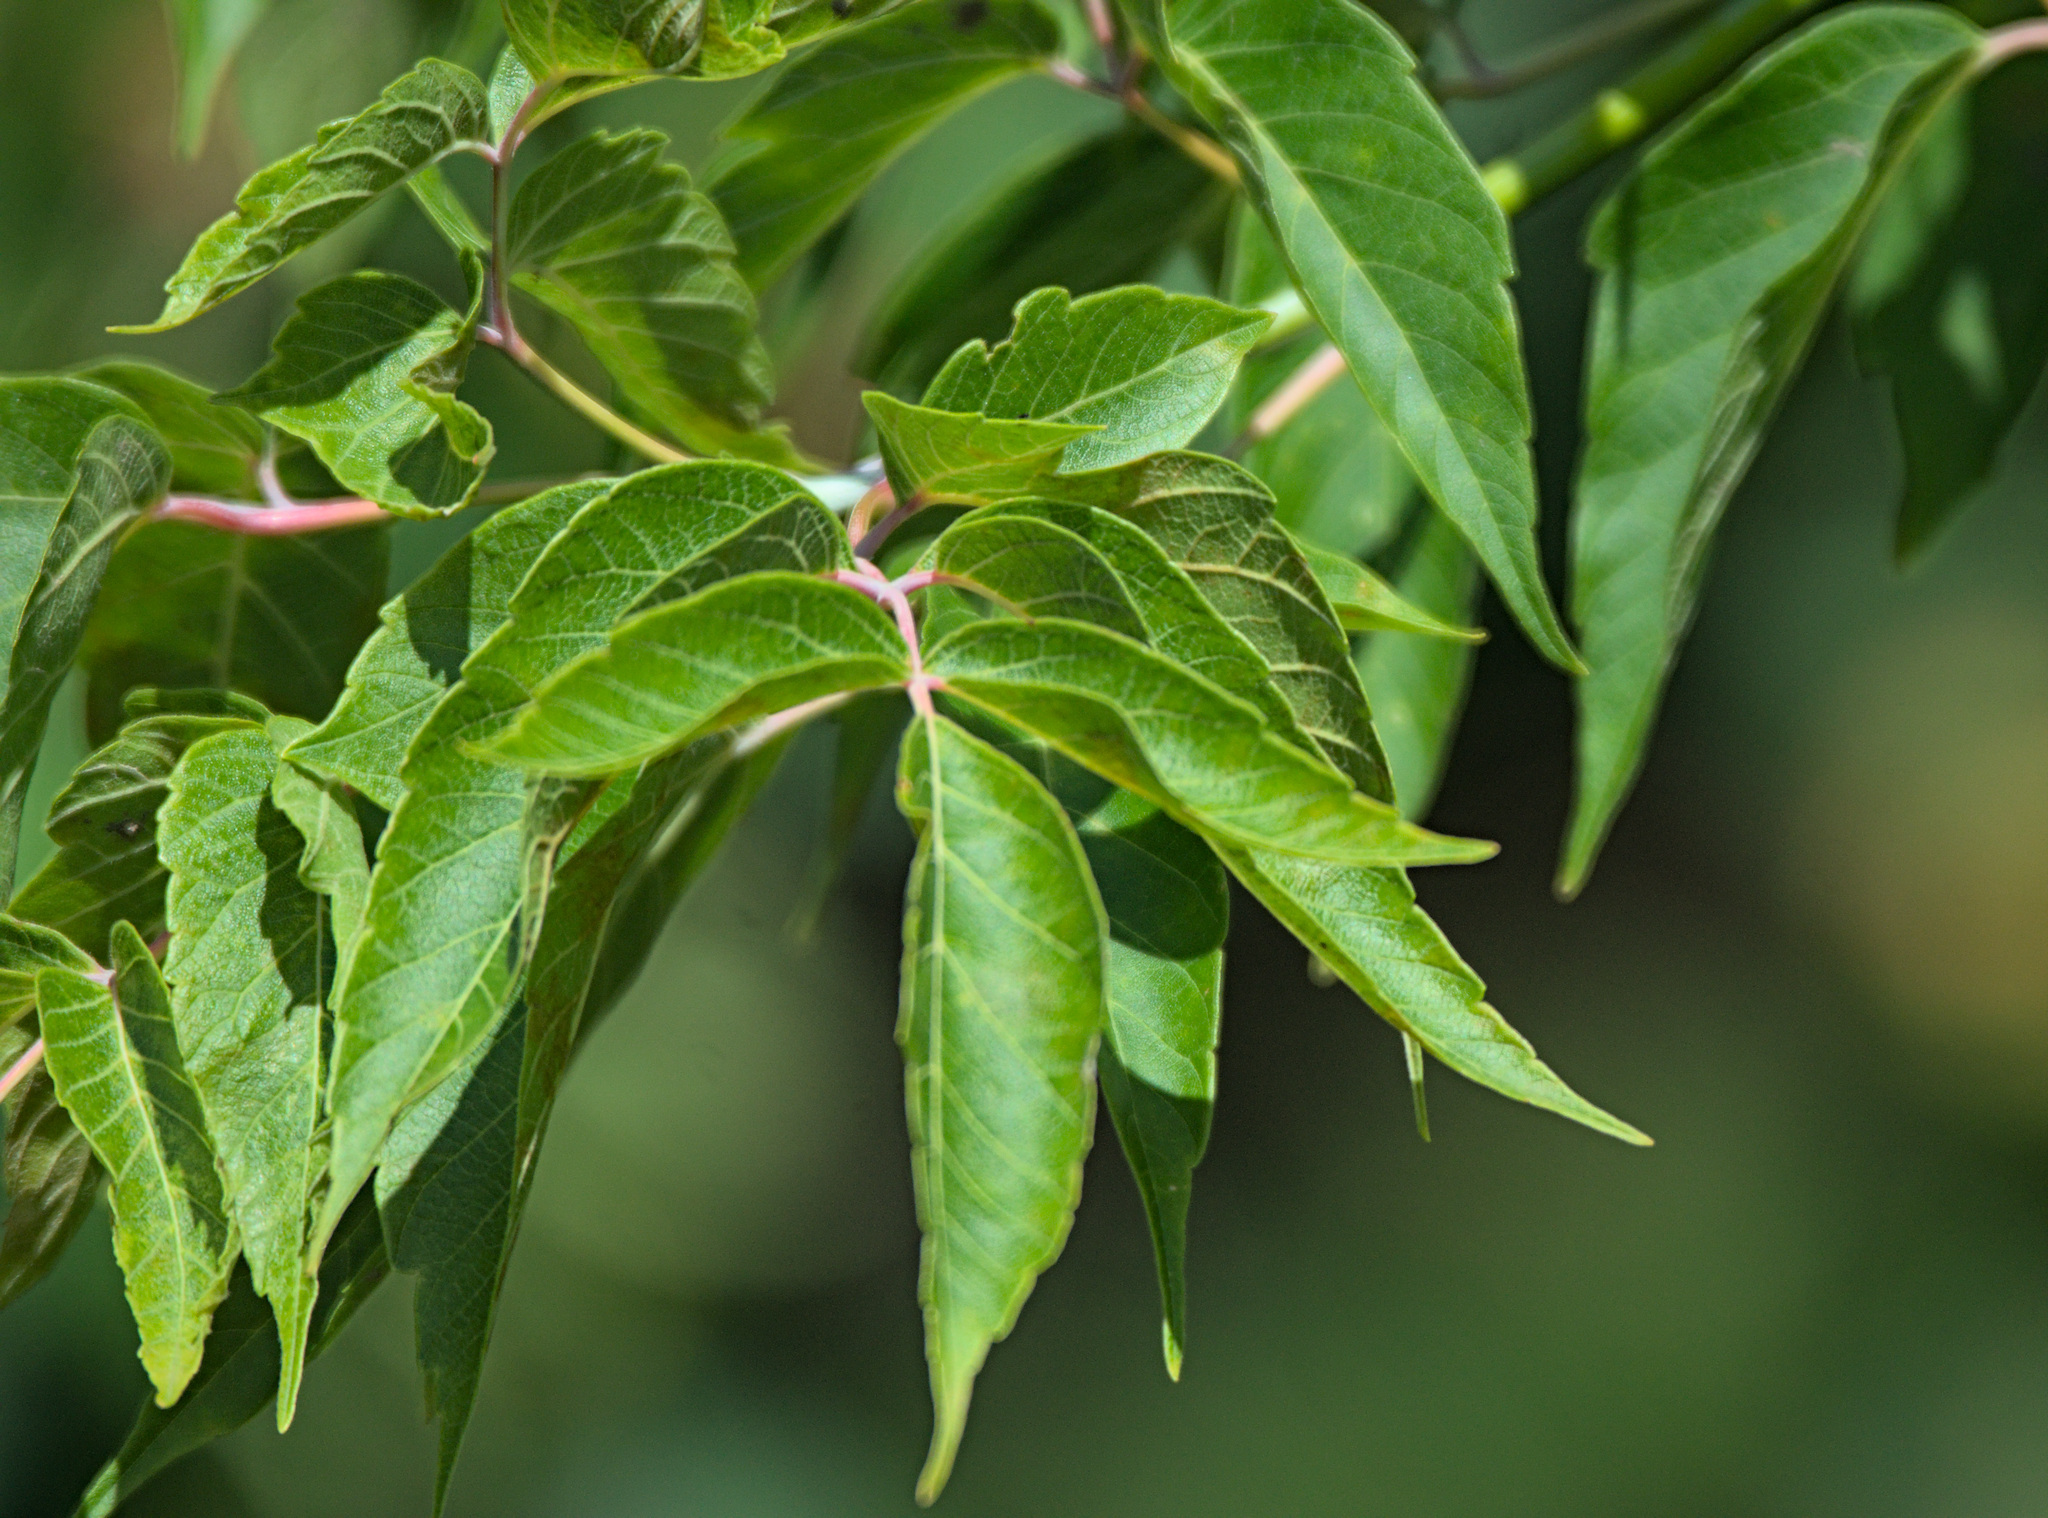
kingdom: Plantae
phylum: Tracheophyta
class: Magnoliopsida
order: Sapindales
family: Sapindaceae
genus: Acer
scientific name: Acer negundo
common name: Ashleaf maple
